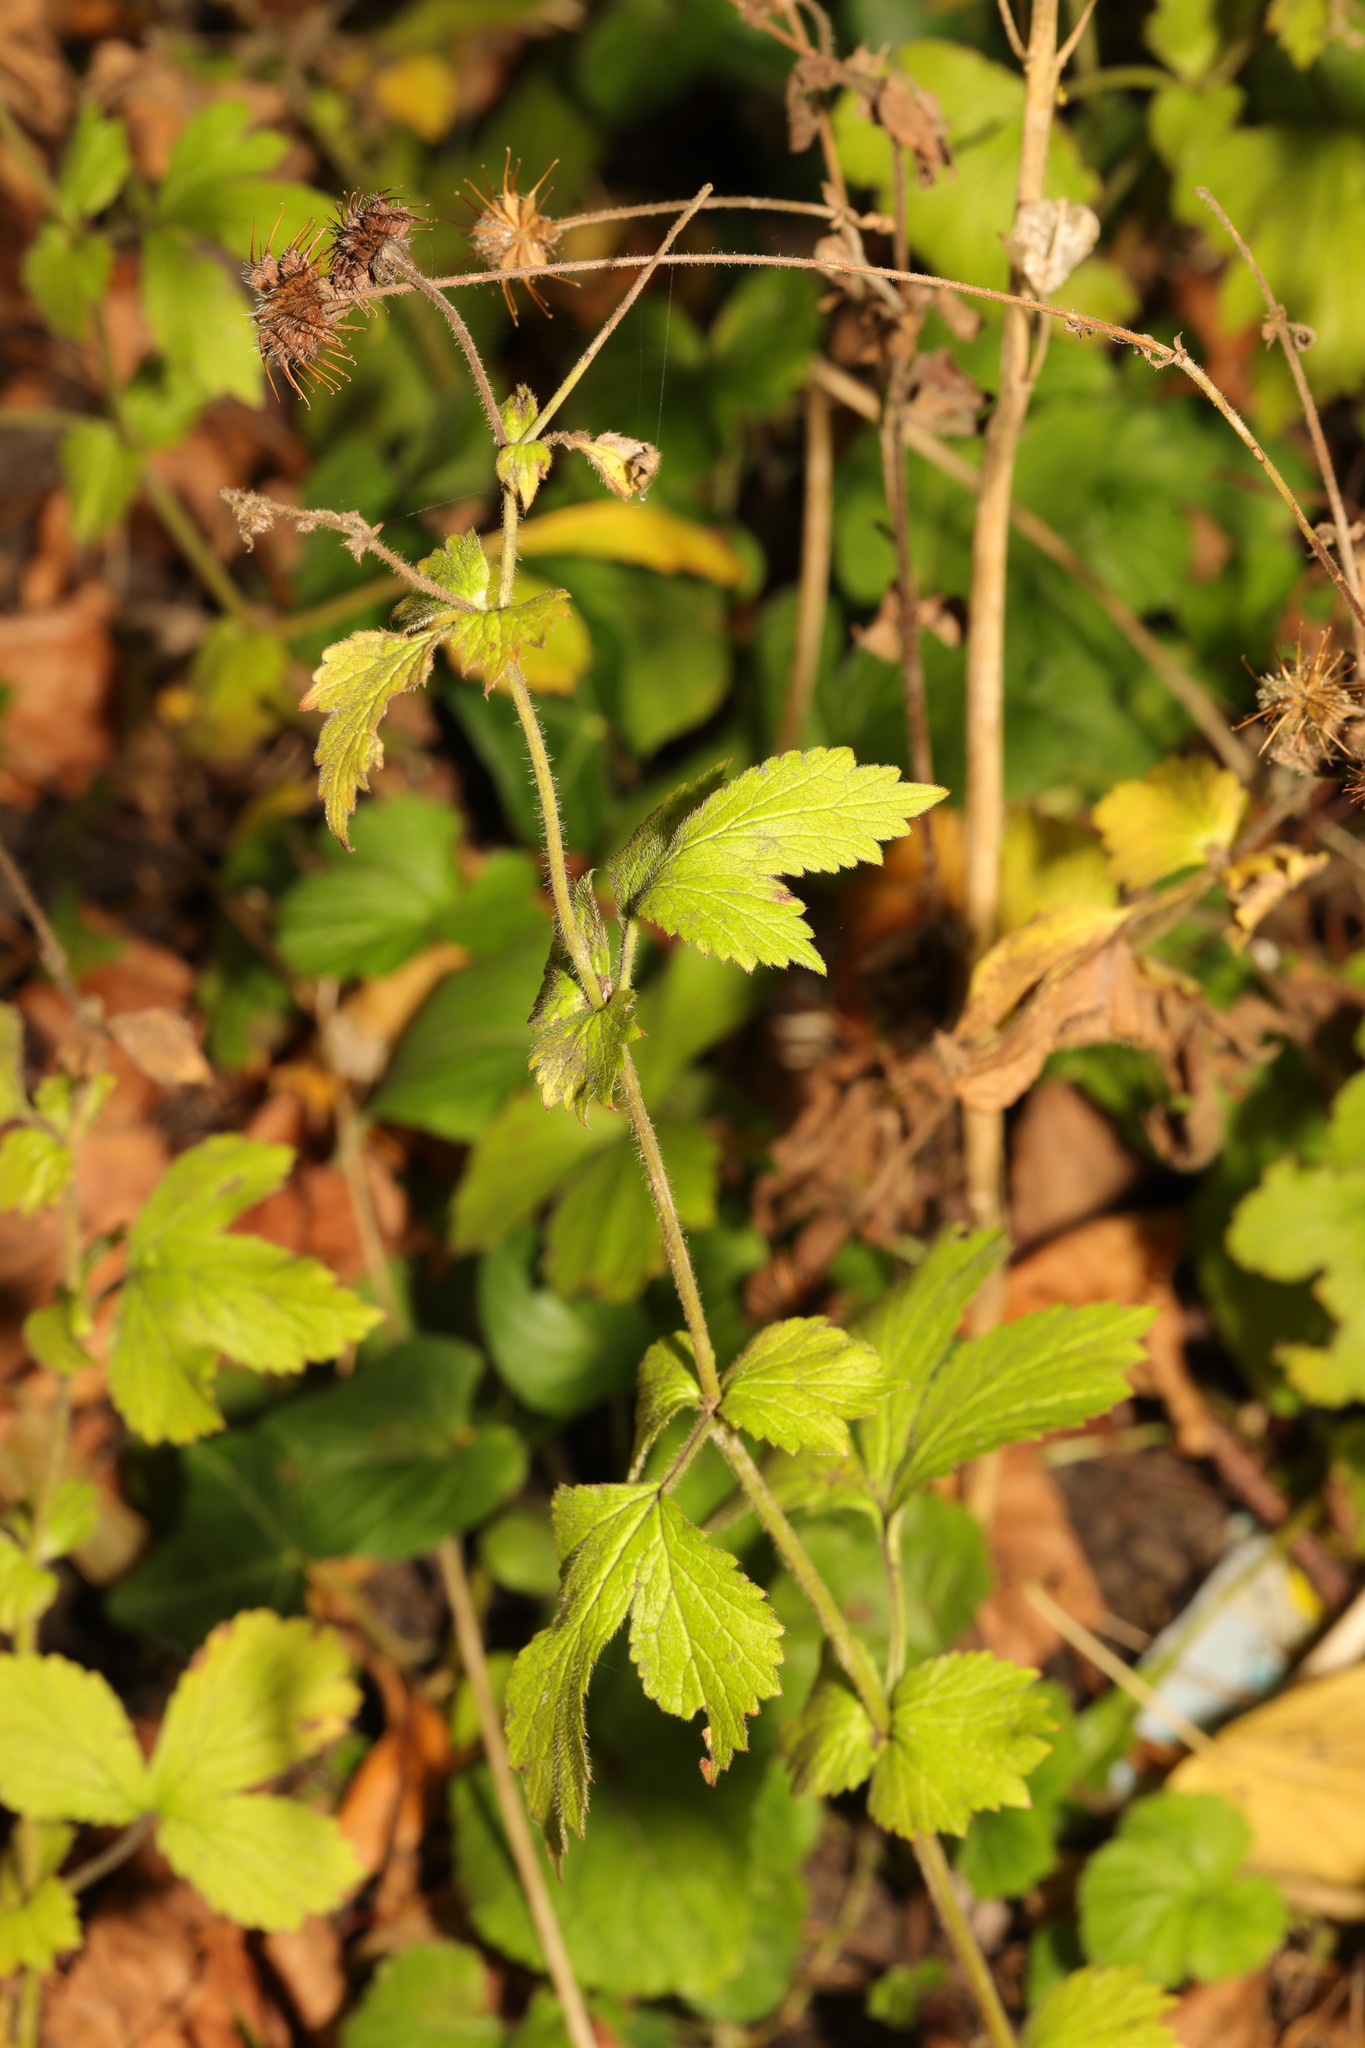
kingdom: Plantae
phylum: Tracheophyta
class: Magnoliopsida
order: Rosales
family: Rosaceae
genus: Geum
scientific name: Geum urbanum
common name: Wood avens
